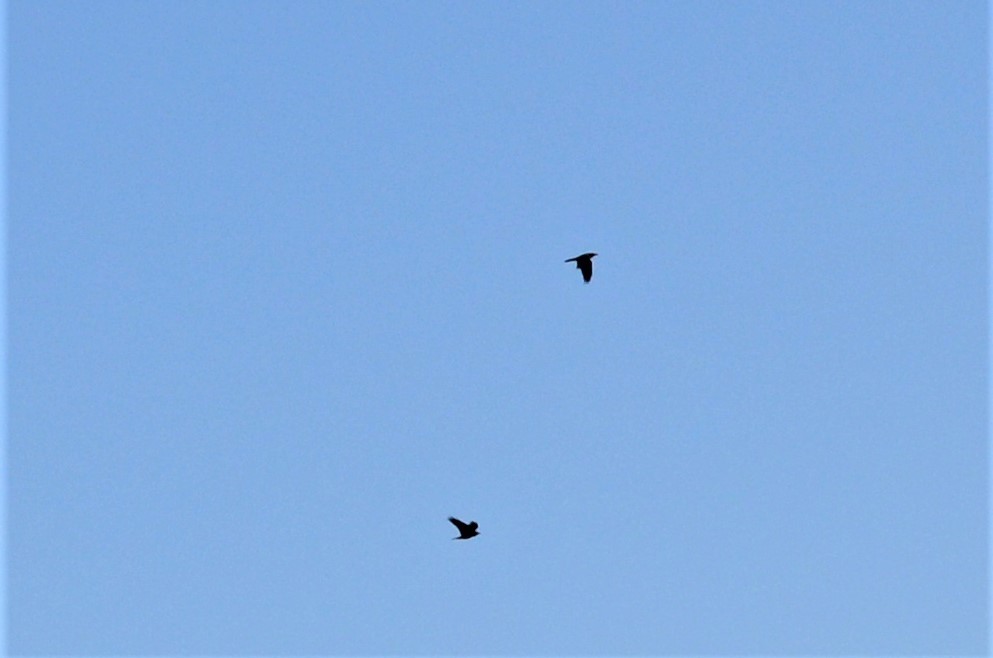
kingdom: Animalia
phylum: Chordata
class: Aves
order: Passeriformes
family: Corvidae
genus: Corvus
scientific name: Corvus corax
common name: Common raven
